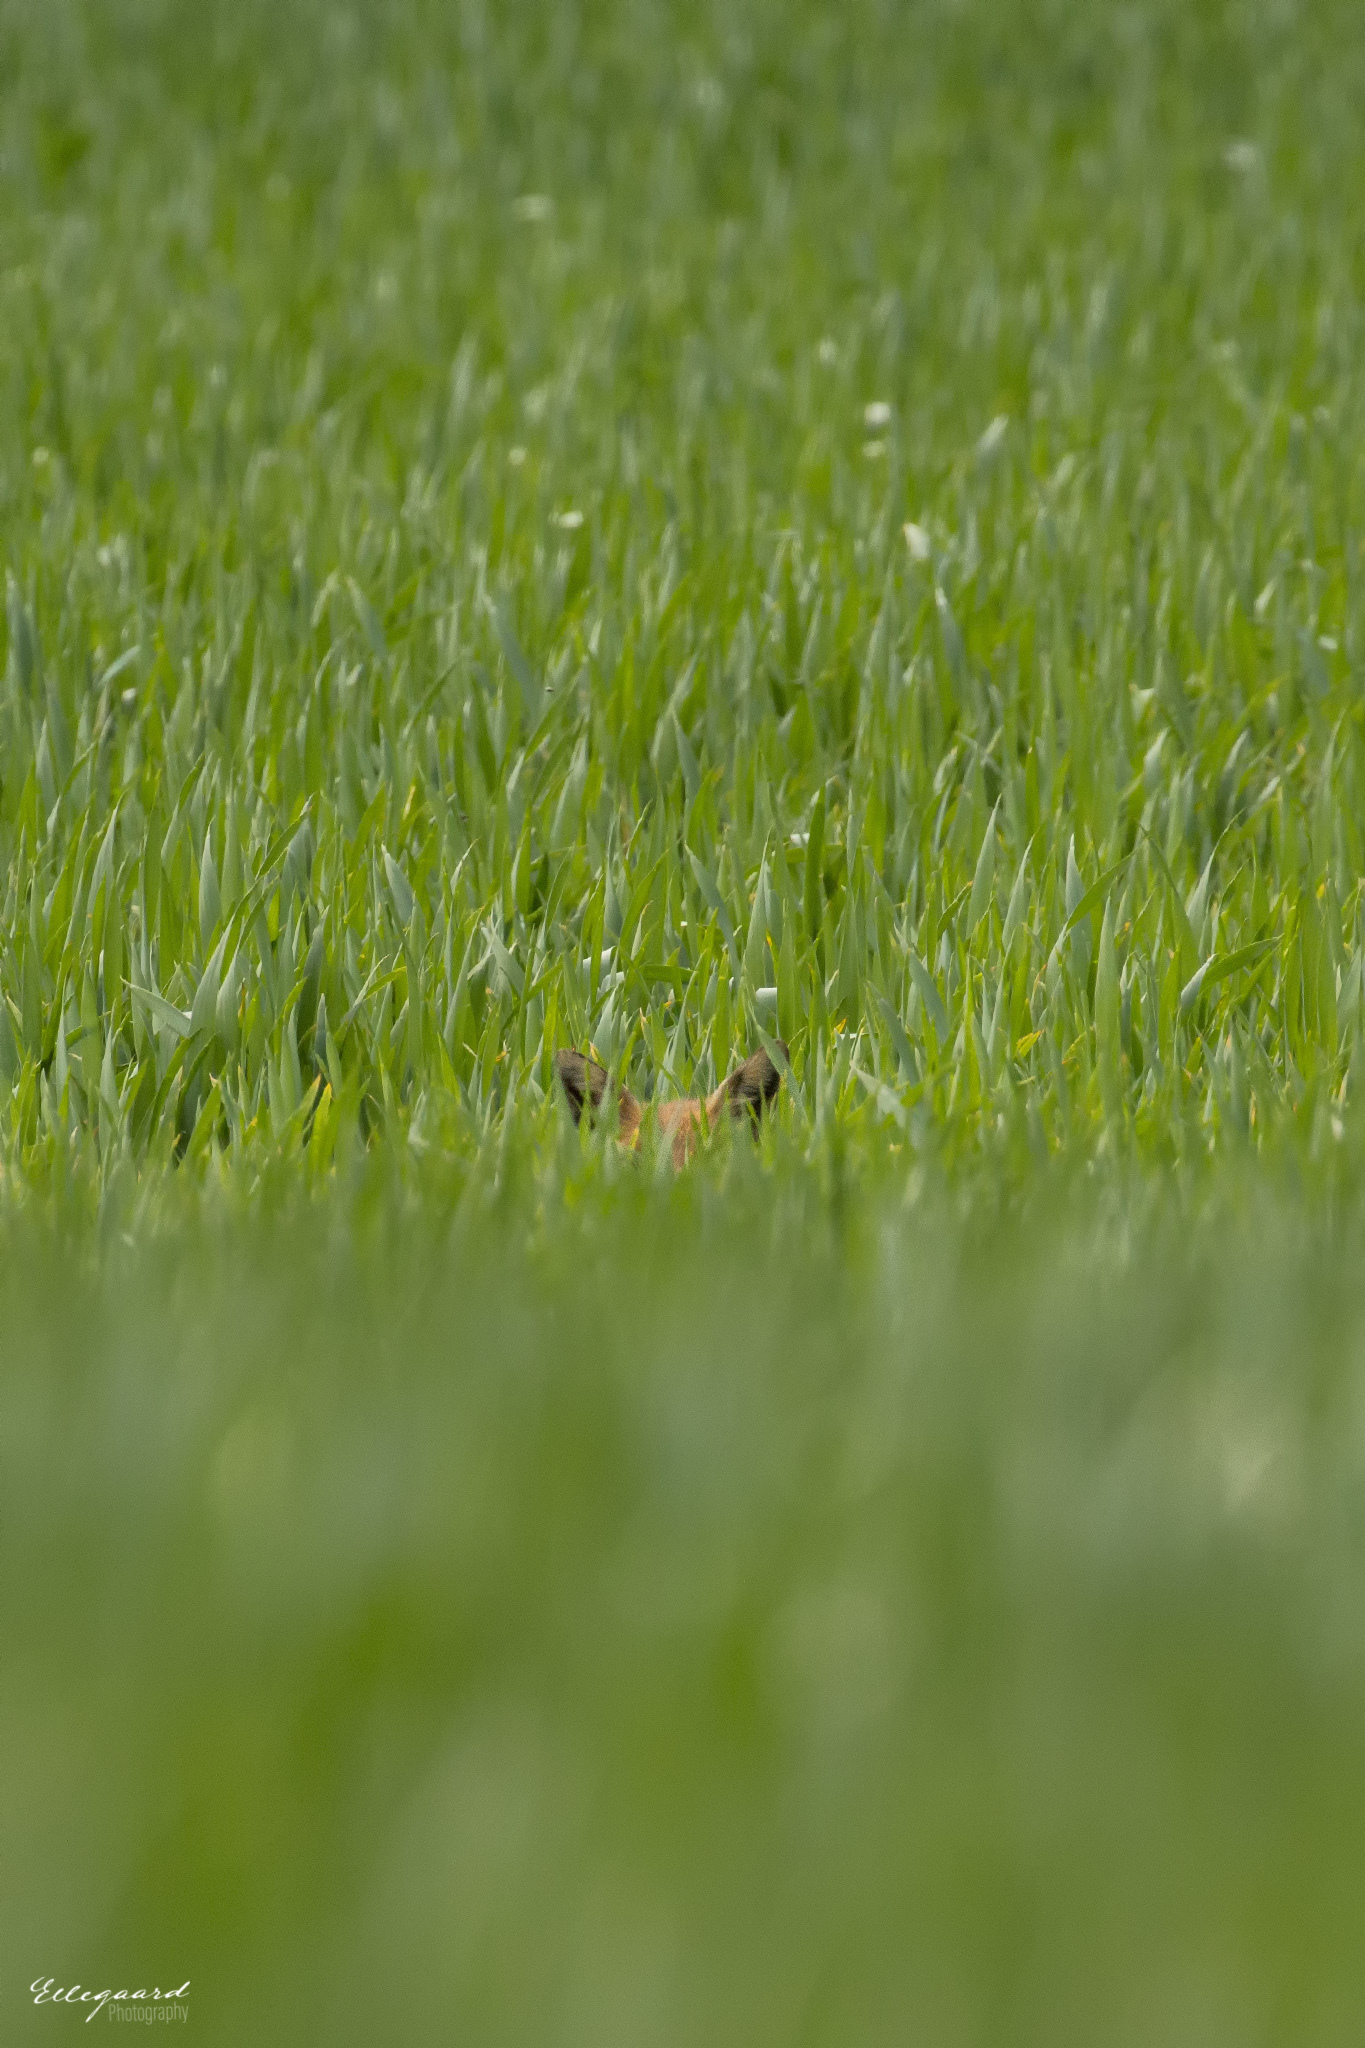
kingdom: Animalia
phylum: Chordata
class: Mammalia
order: Carnivora
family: Canidae
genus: Vulpes
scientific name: Vulpes vulpes
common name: Red fox
